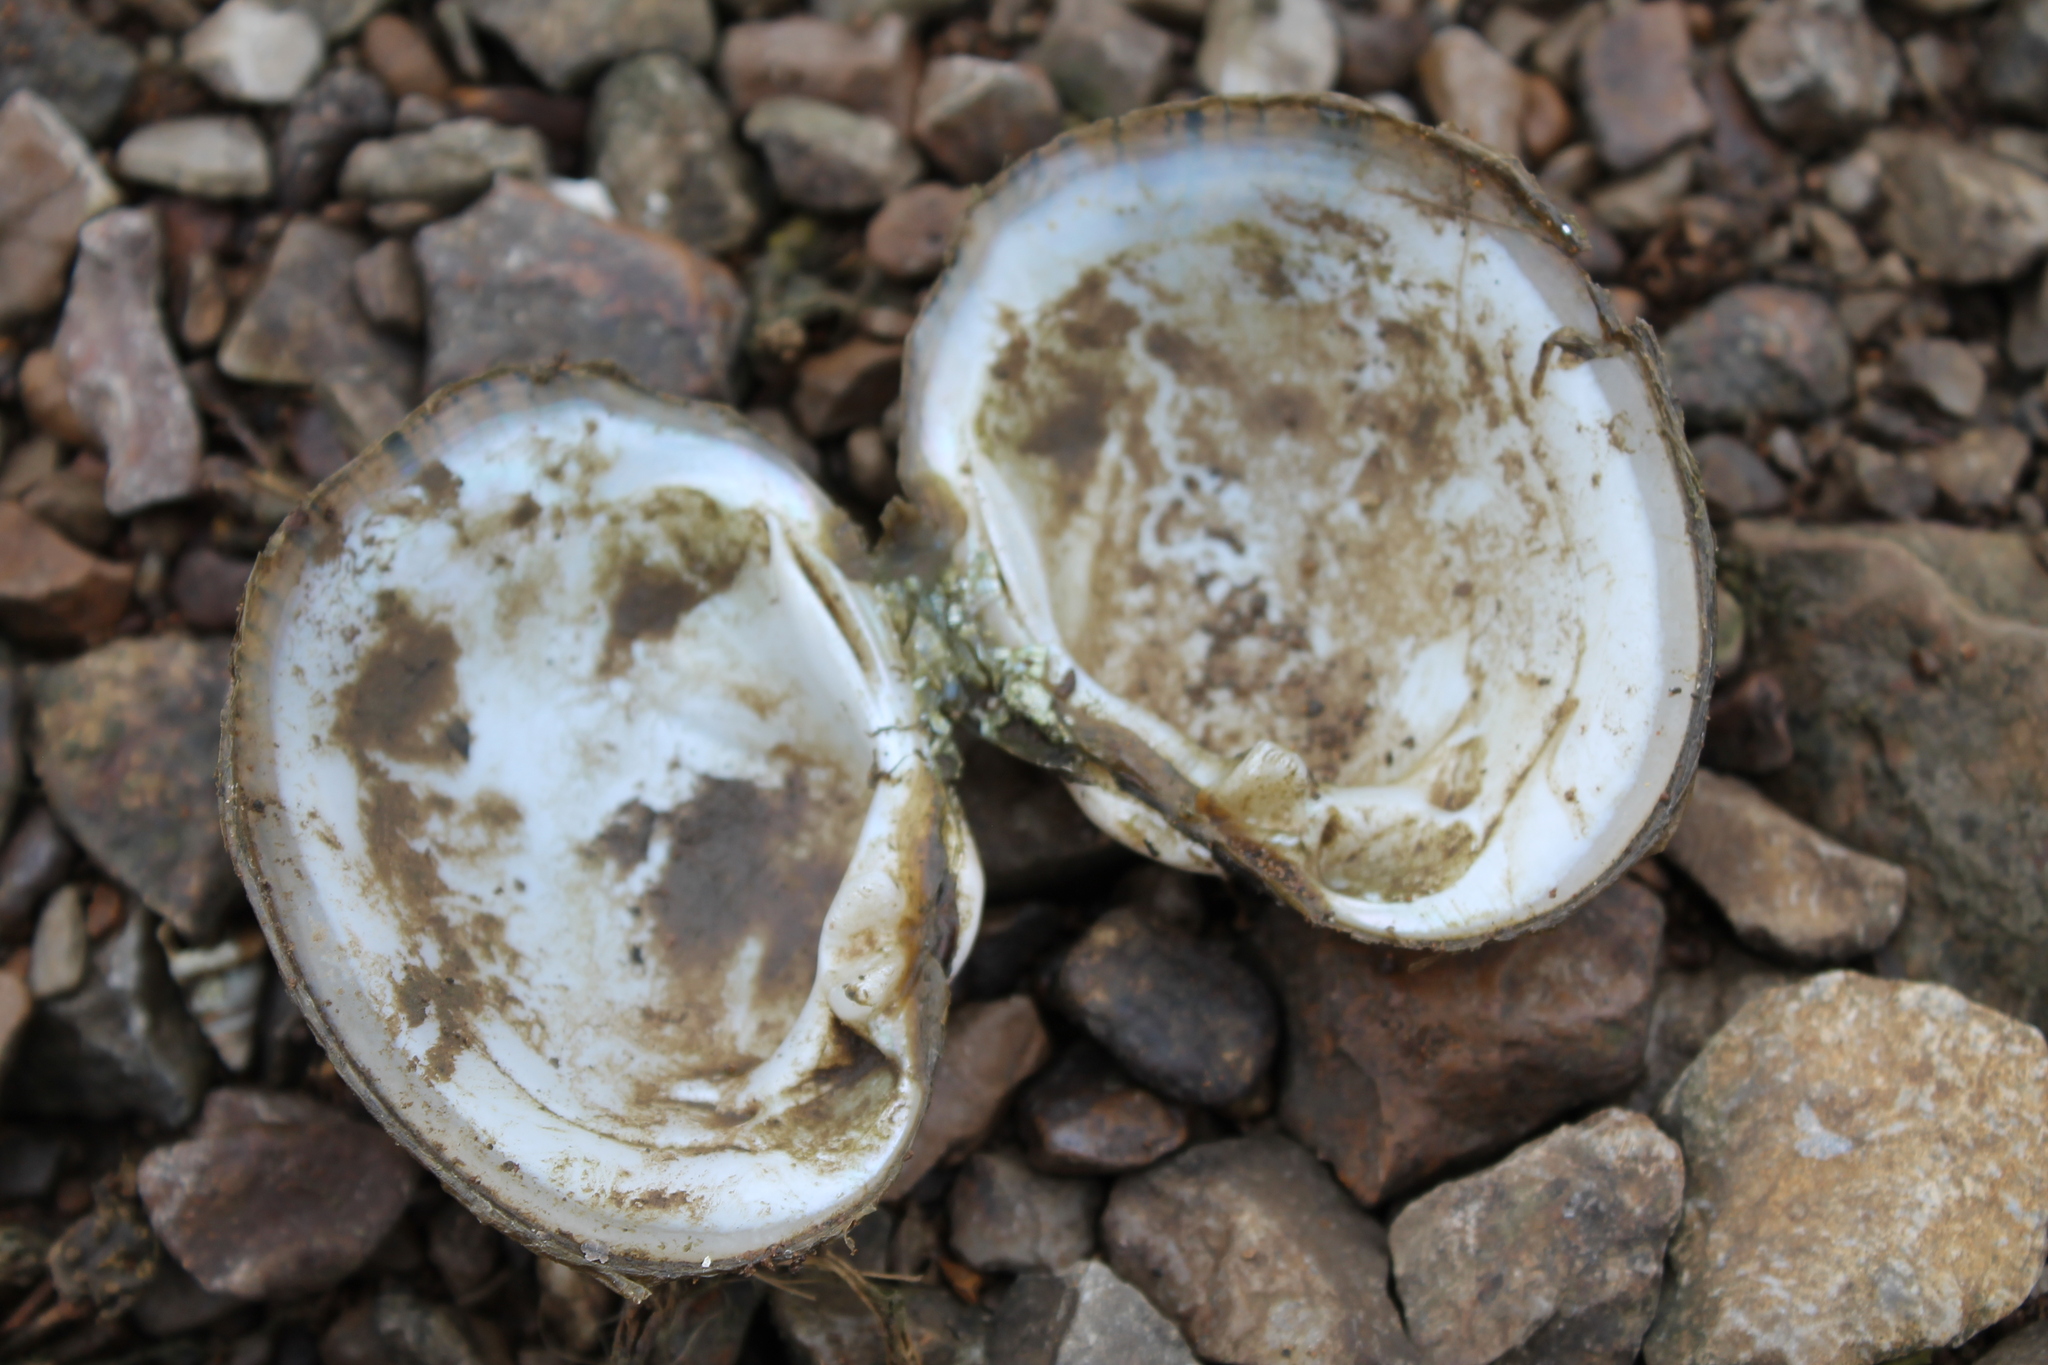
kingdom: Animalia
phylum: Mollusca
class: Bivalvia
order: Unionida
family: Unionidae
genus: Lampsilis
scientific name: Lampsilis fasciola
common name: Wavyrayed lampmussel
